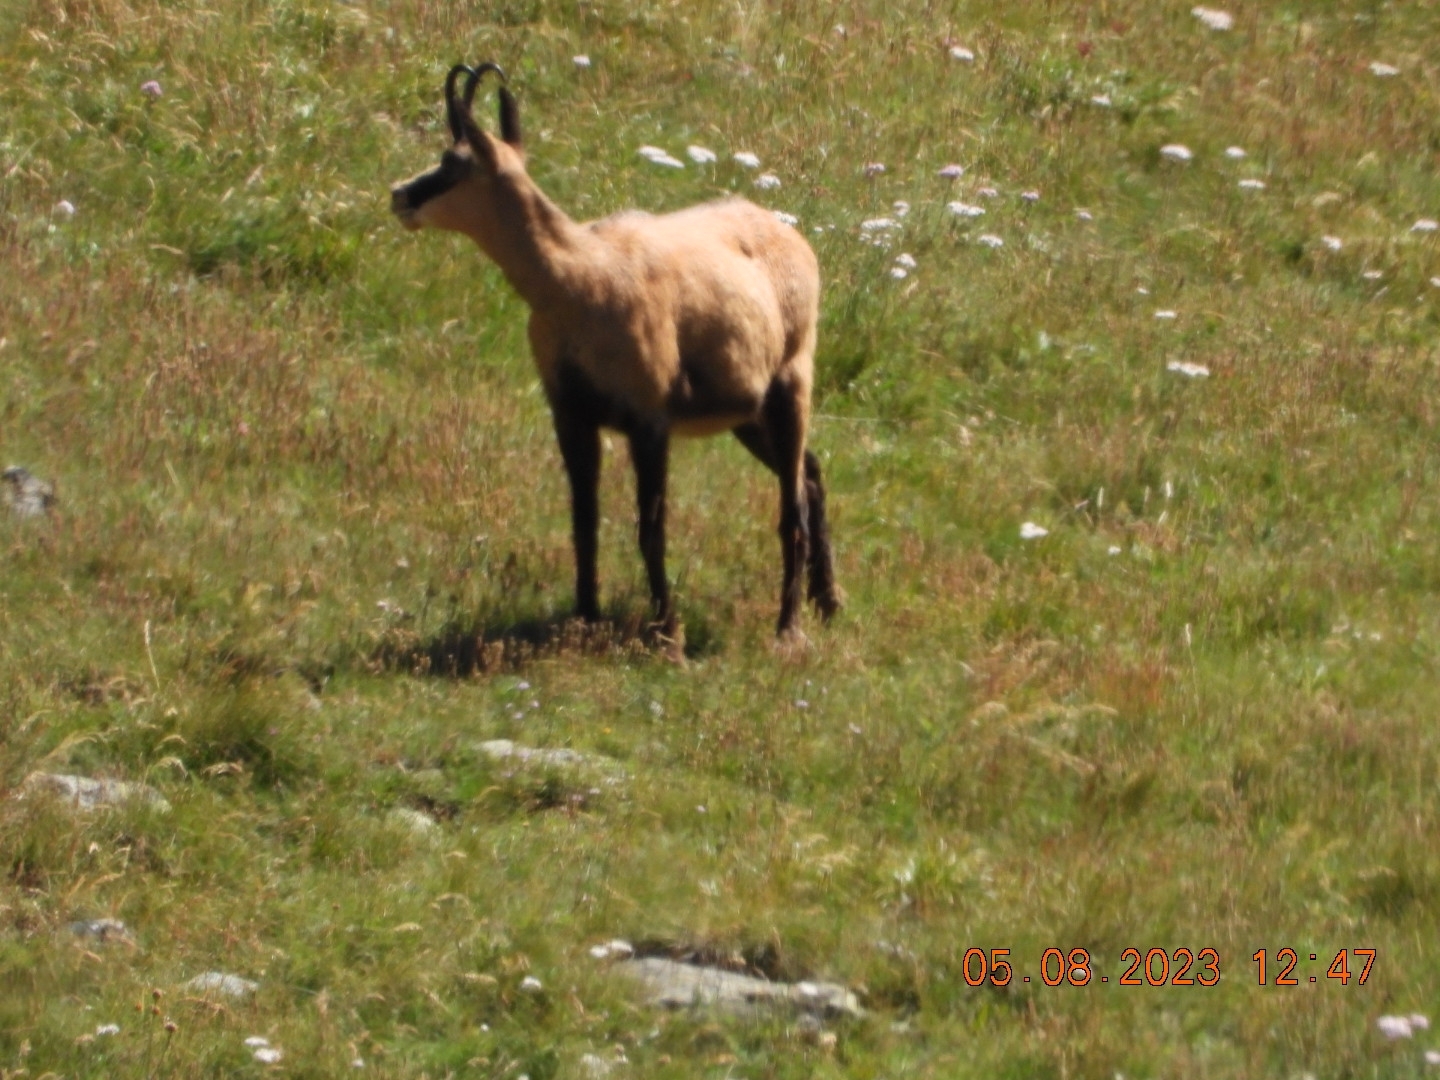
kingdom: Animalia
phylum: Chordata
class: Mammalia
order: Artiodactyla
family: Bovidae
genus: Rupicapra
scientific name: Rupicapra rupicapra
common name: Chamois
